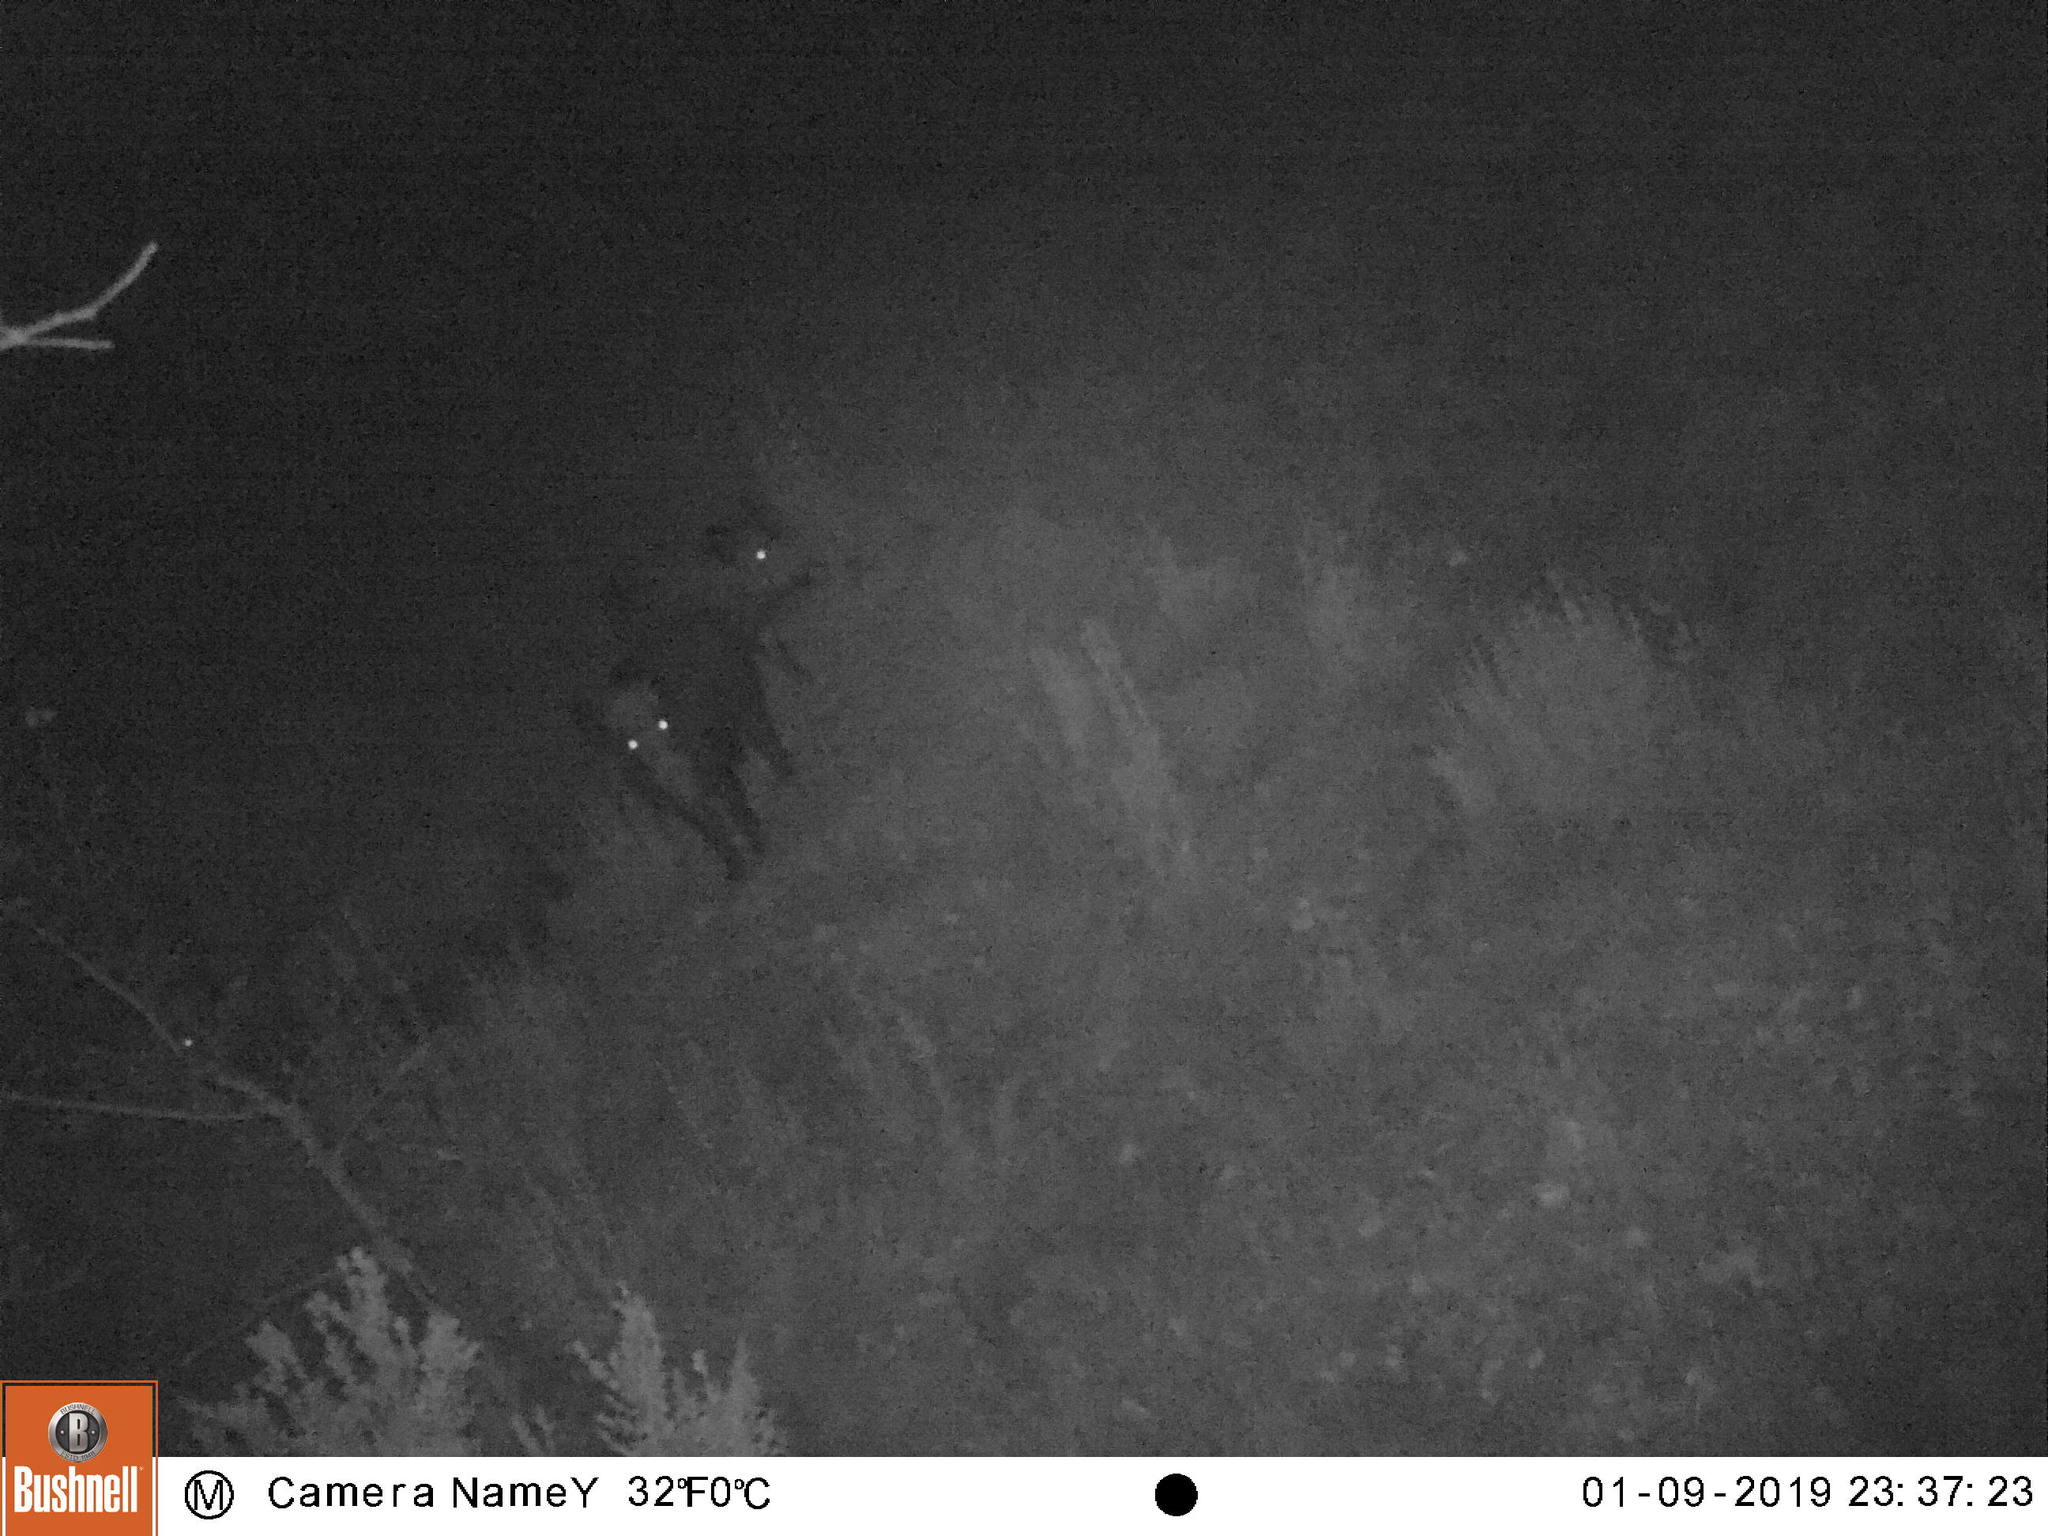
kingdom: Animalia
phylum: Chordata
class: Mammalia
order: Artiodactyla
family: Suidae
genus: Sus
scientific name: Sus scrofa
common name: Wild boar
